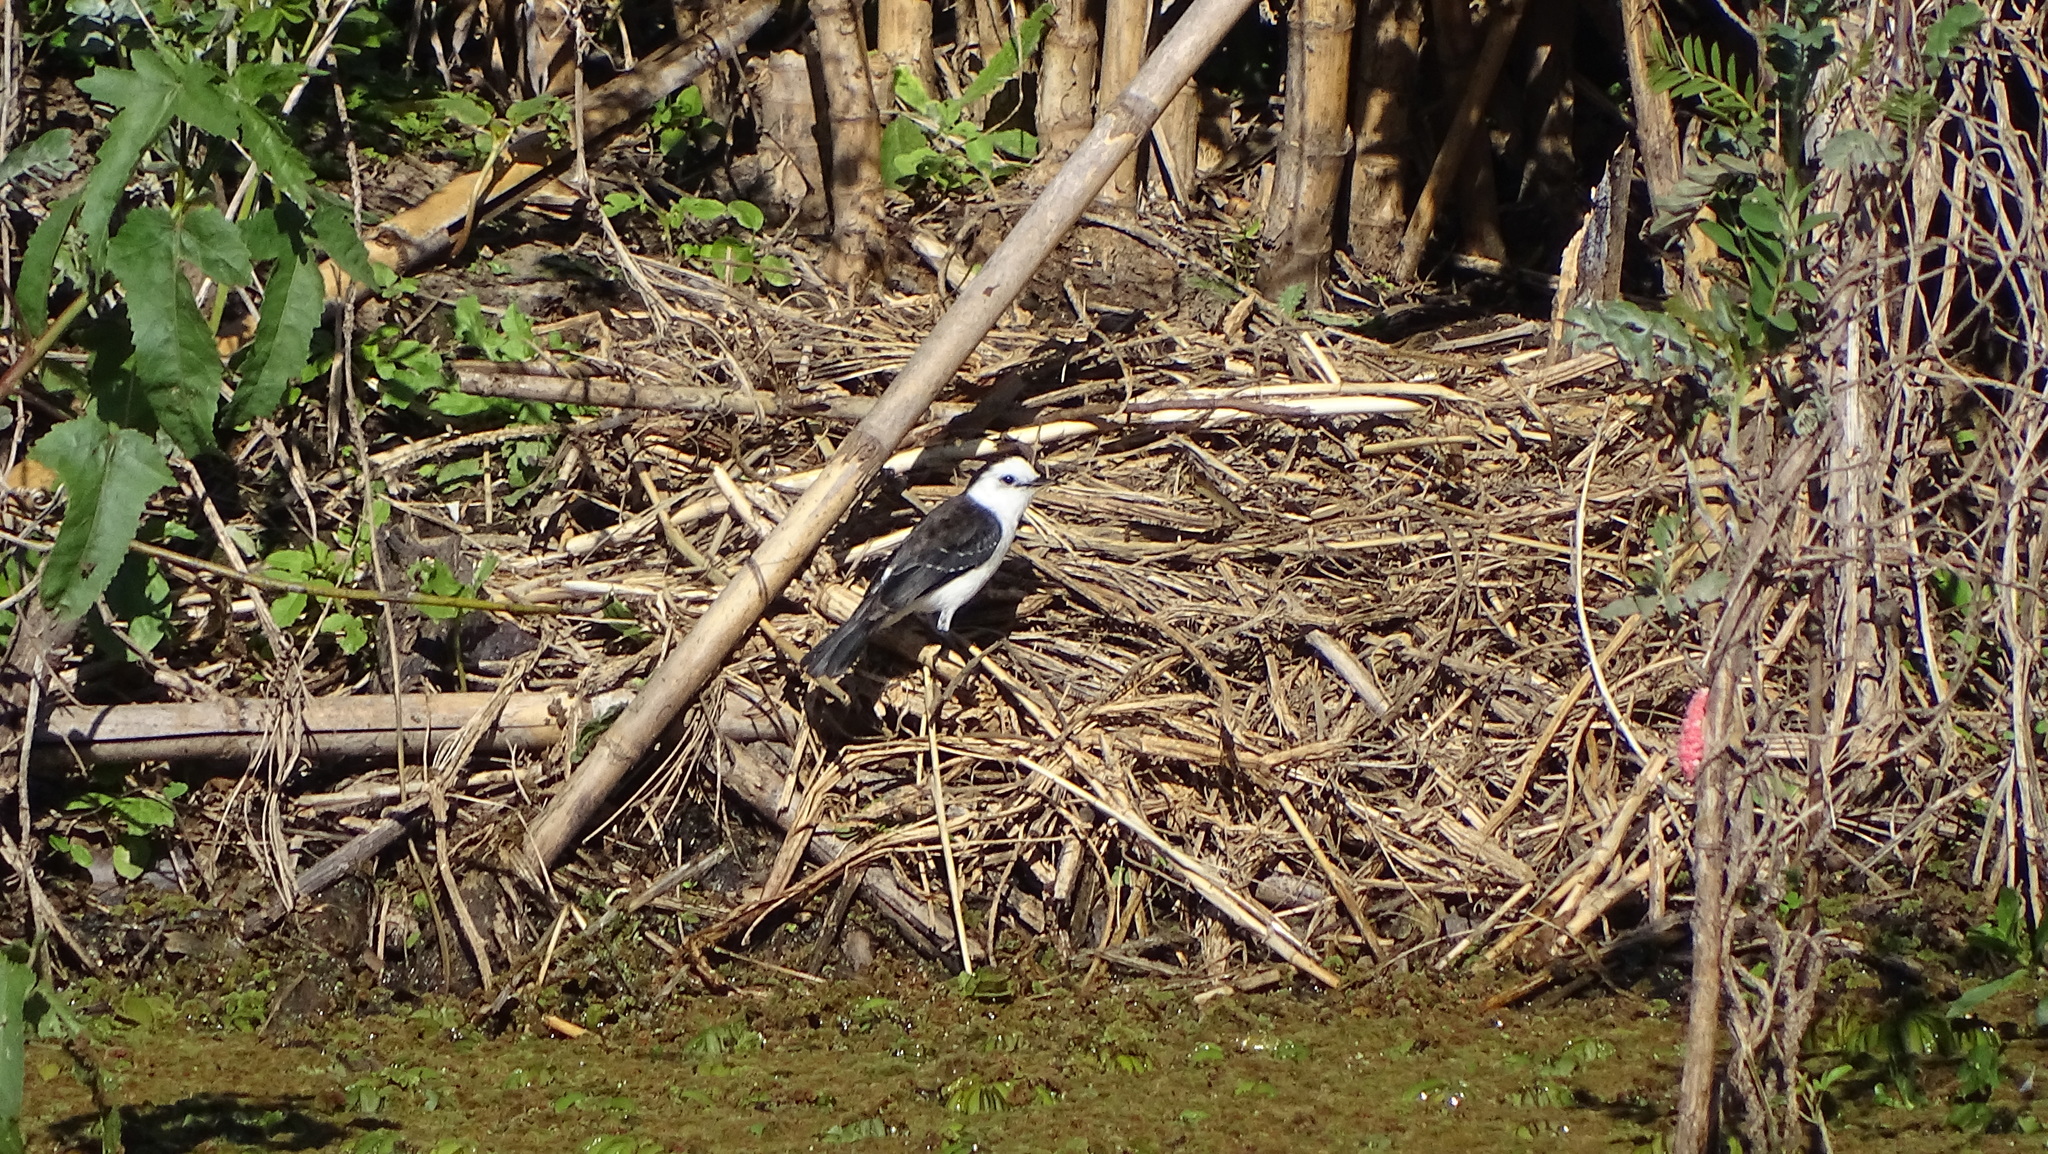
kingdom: Animalia
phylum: Chordata
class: Aves
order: Passeriformes
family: Tyrannidae
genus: Fluvicola
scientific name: Fluvicola pica
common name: Pied water-tyrant
